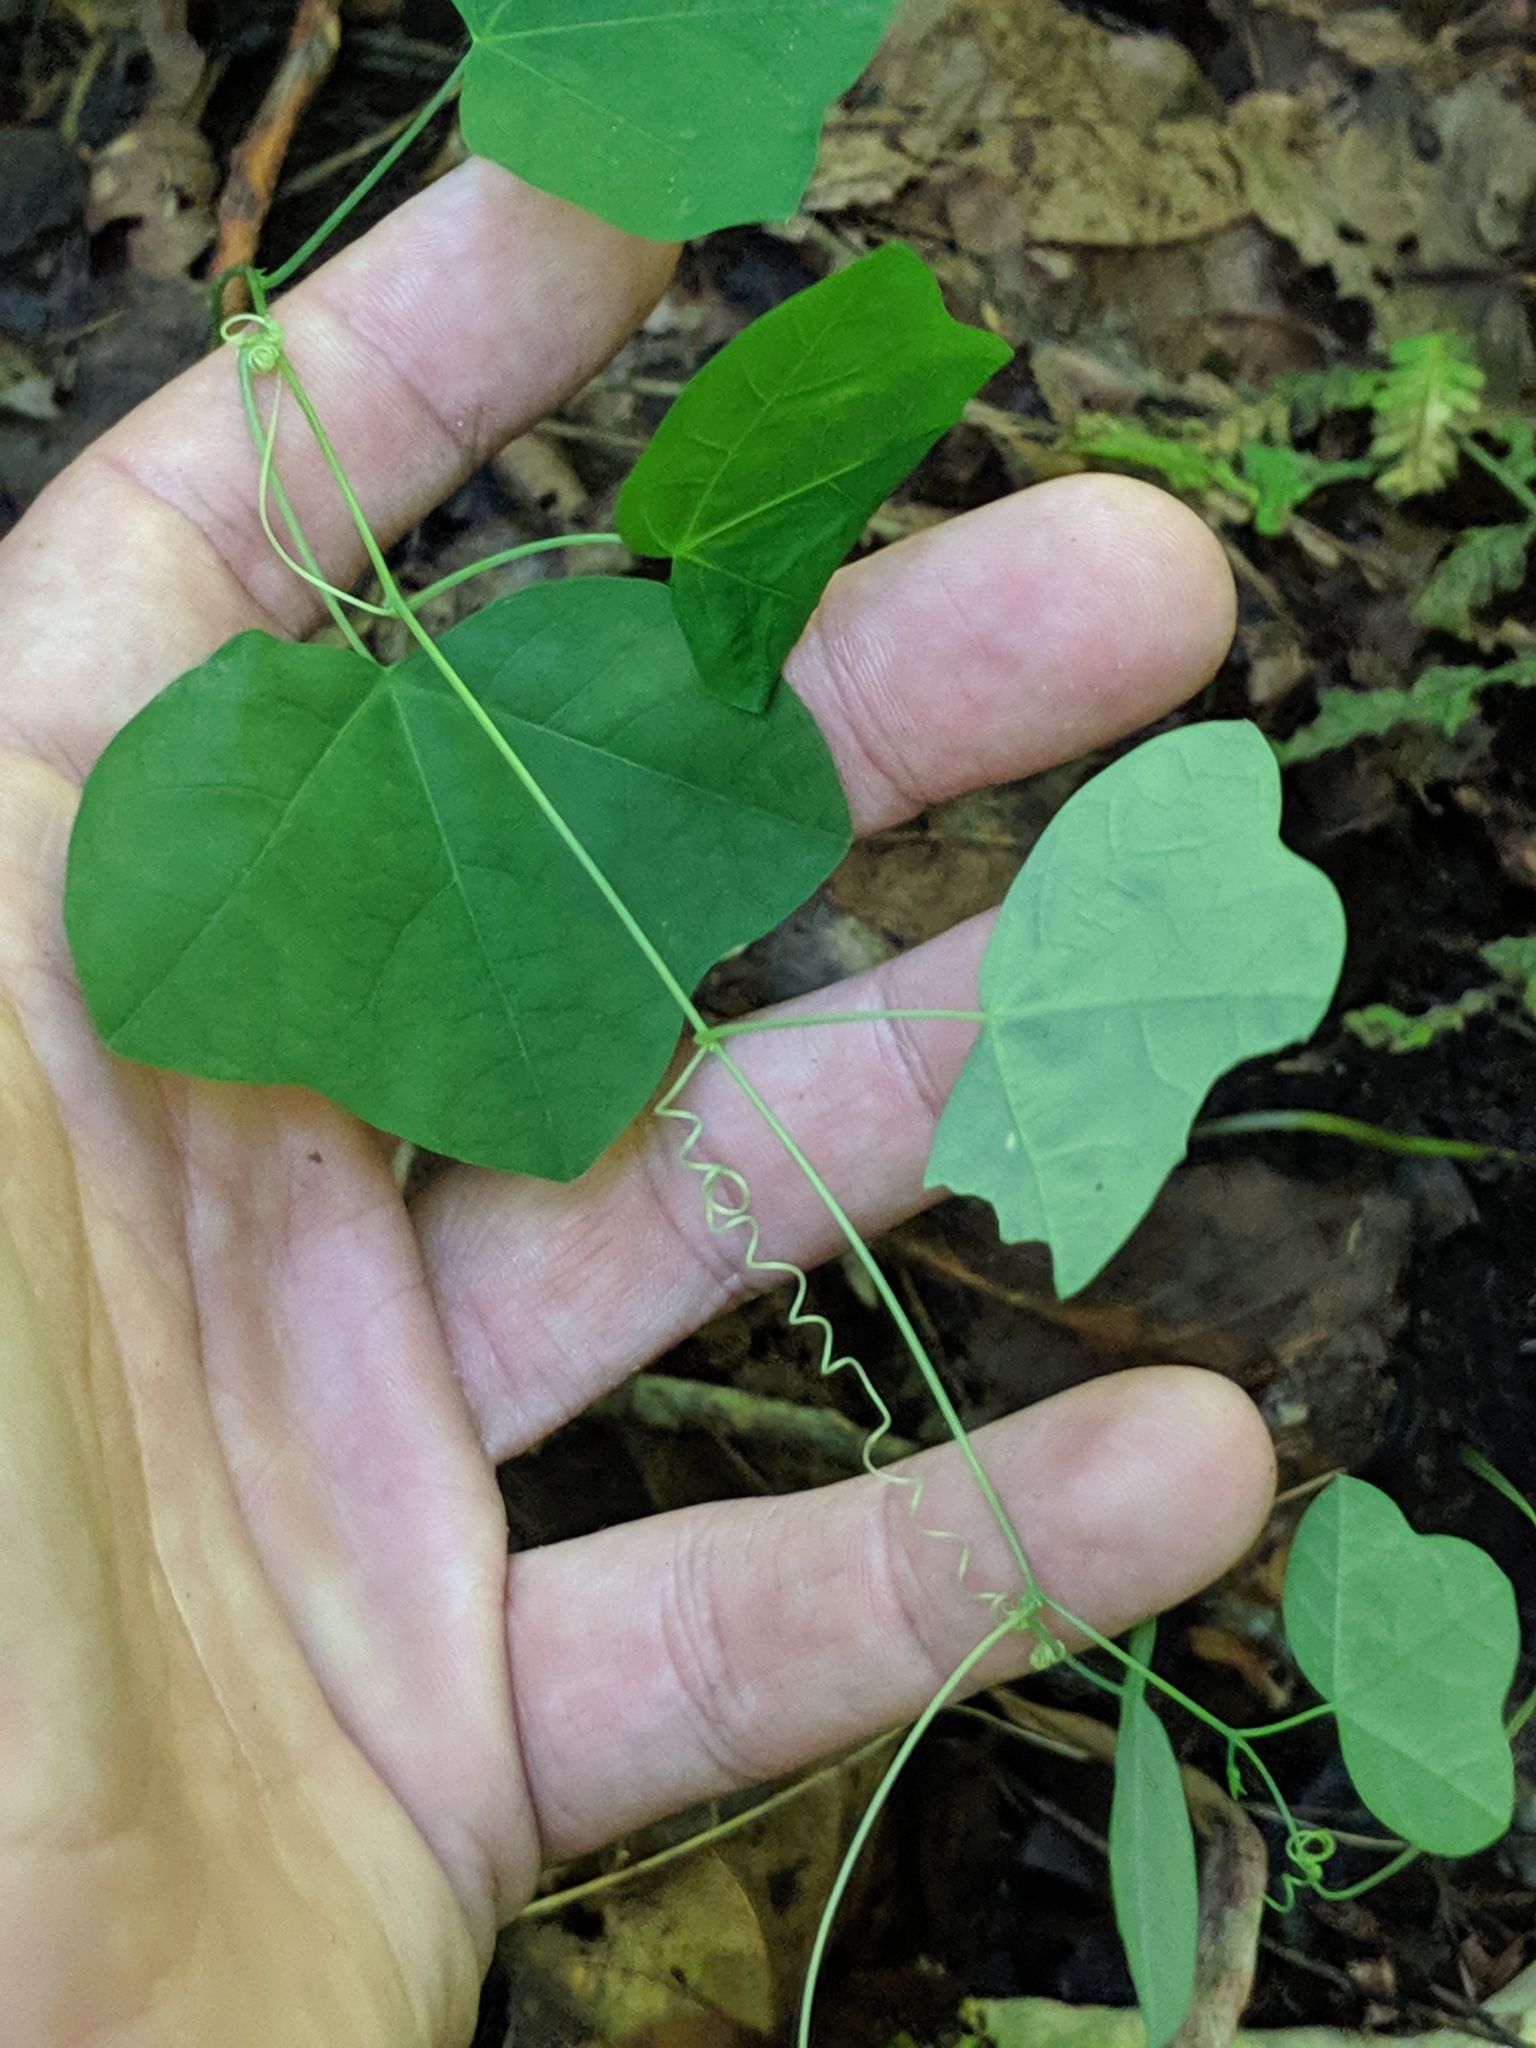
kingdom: Plantae
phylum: Tracheophyta
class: Magnoliopsida
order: Malpighiales
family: Passifloraceae
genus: Passiflora
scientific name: Passiflora lutea
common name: Yellow passionflower
